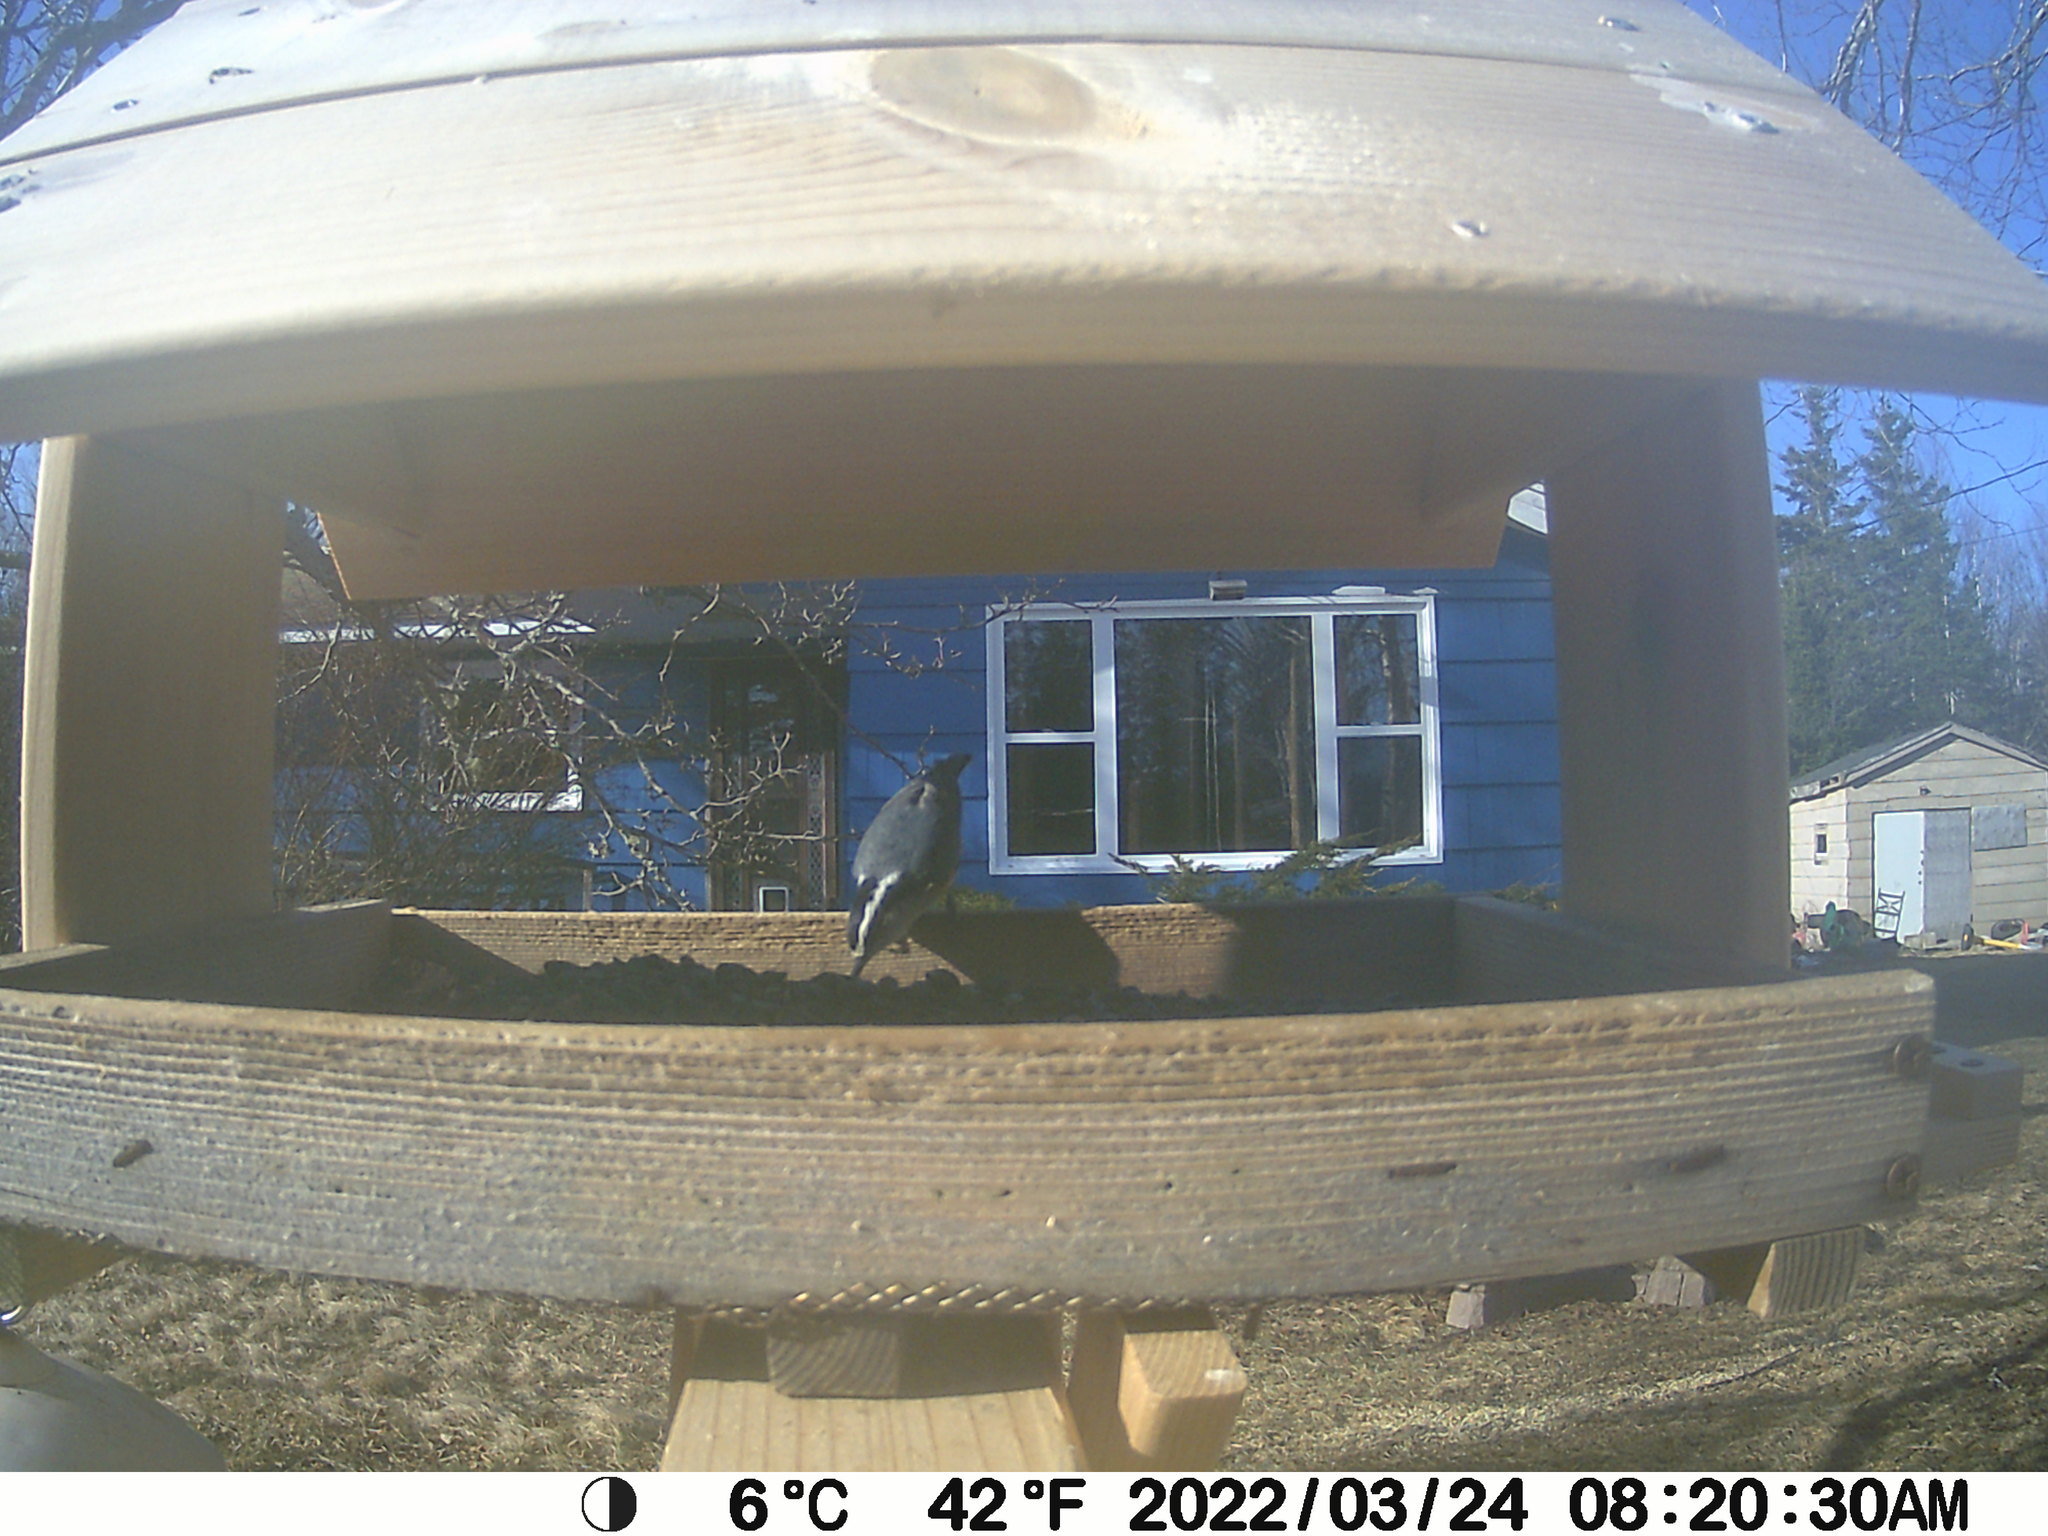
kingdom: Animalia
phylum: Chordata
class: Aves
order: Passeriformes
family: Sittidae
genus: Sitta
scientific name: Sitta canadensis
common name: Red-breasted nuthatch
